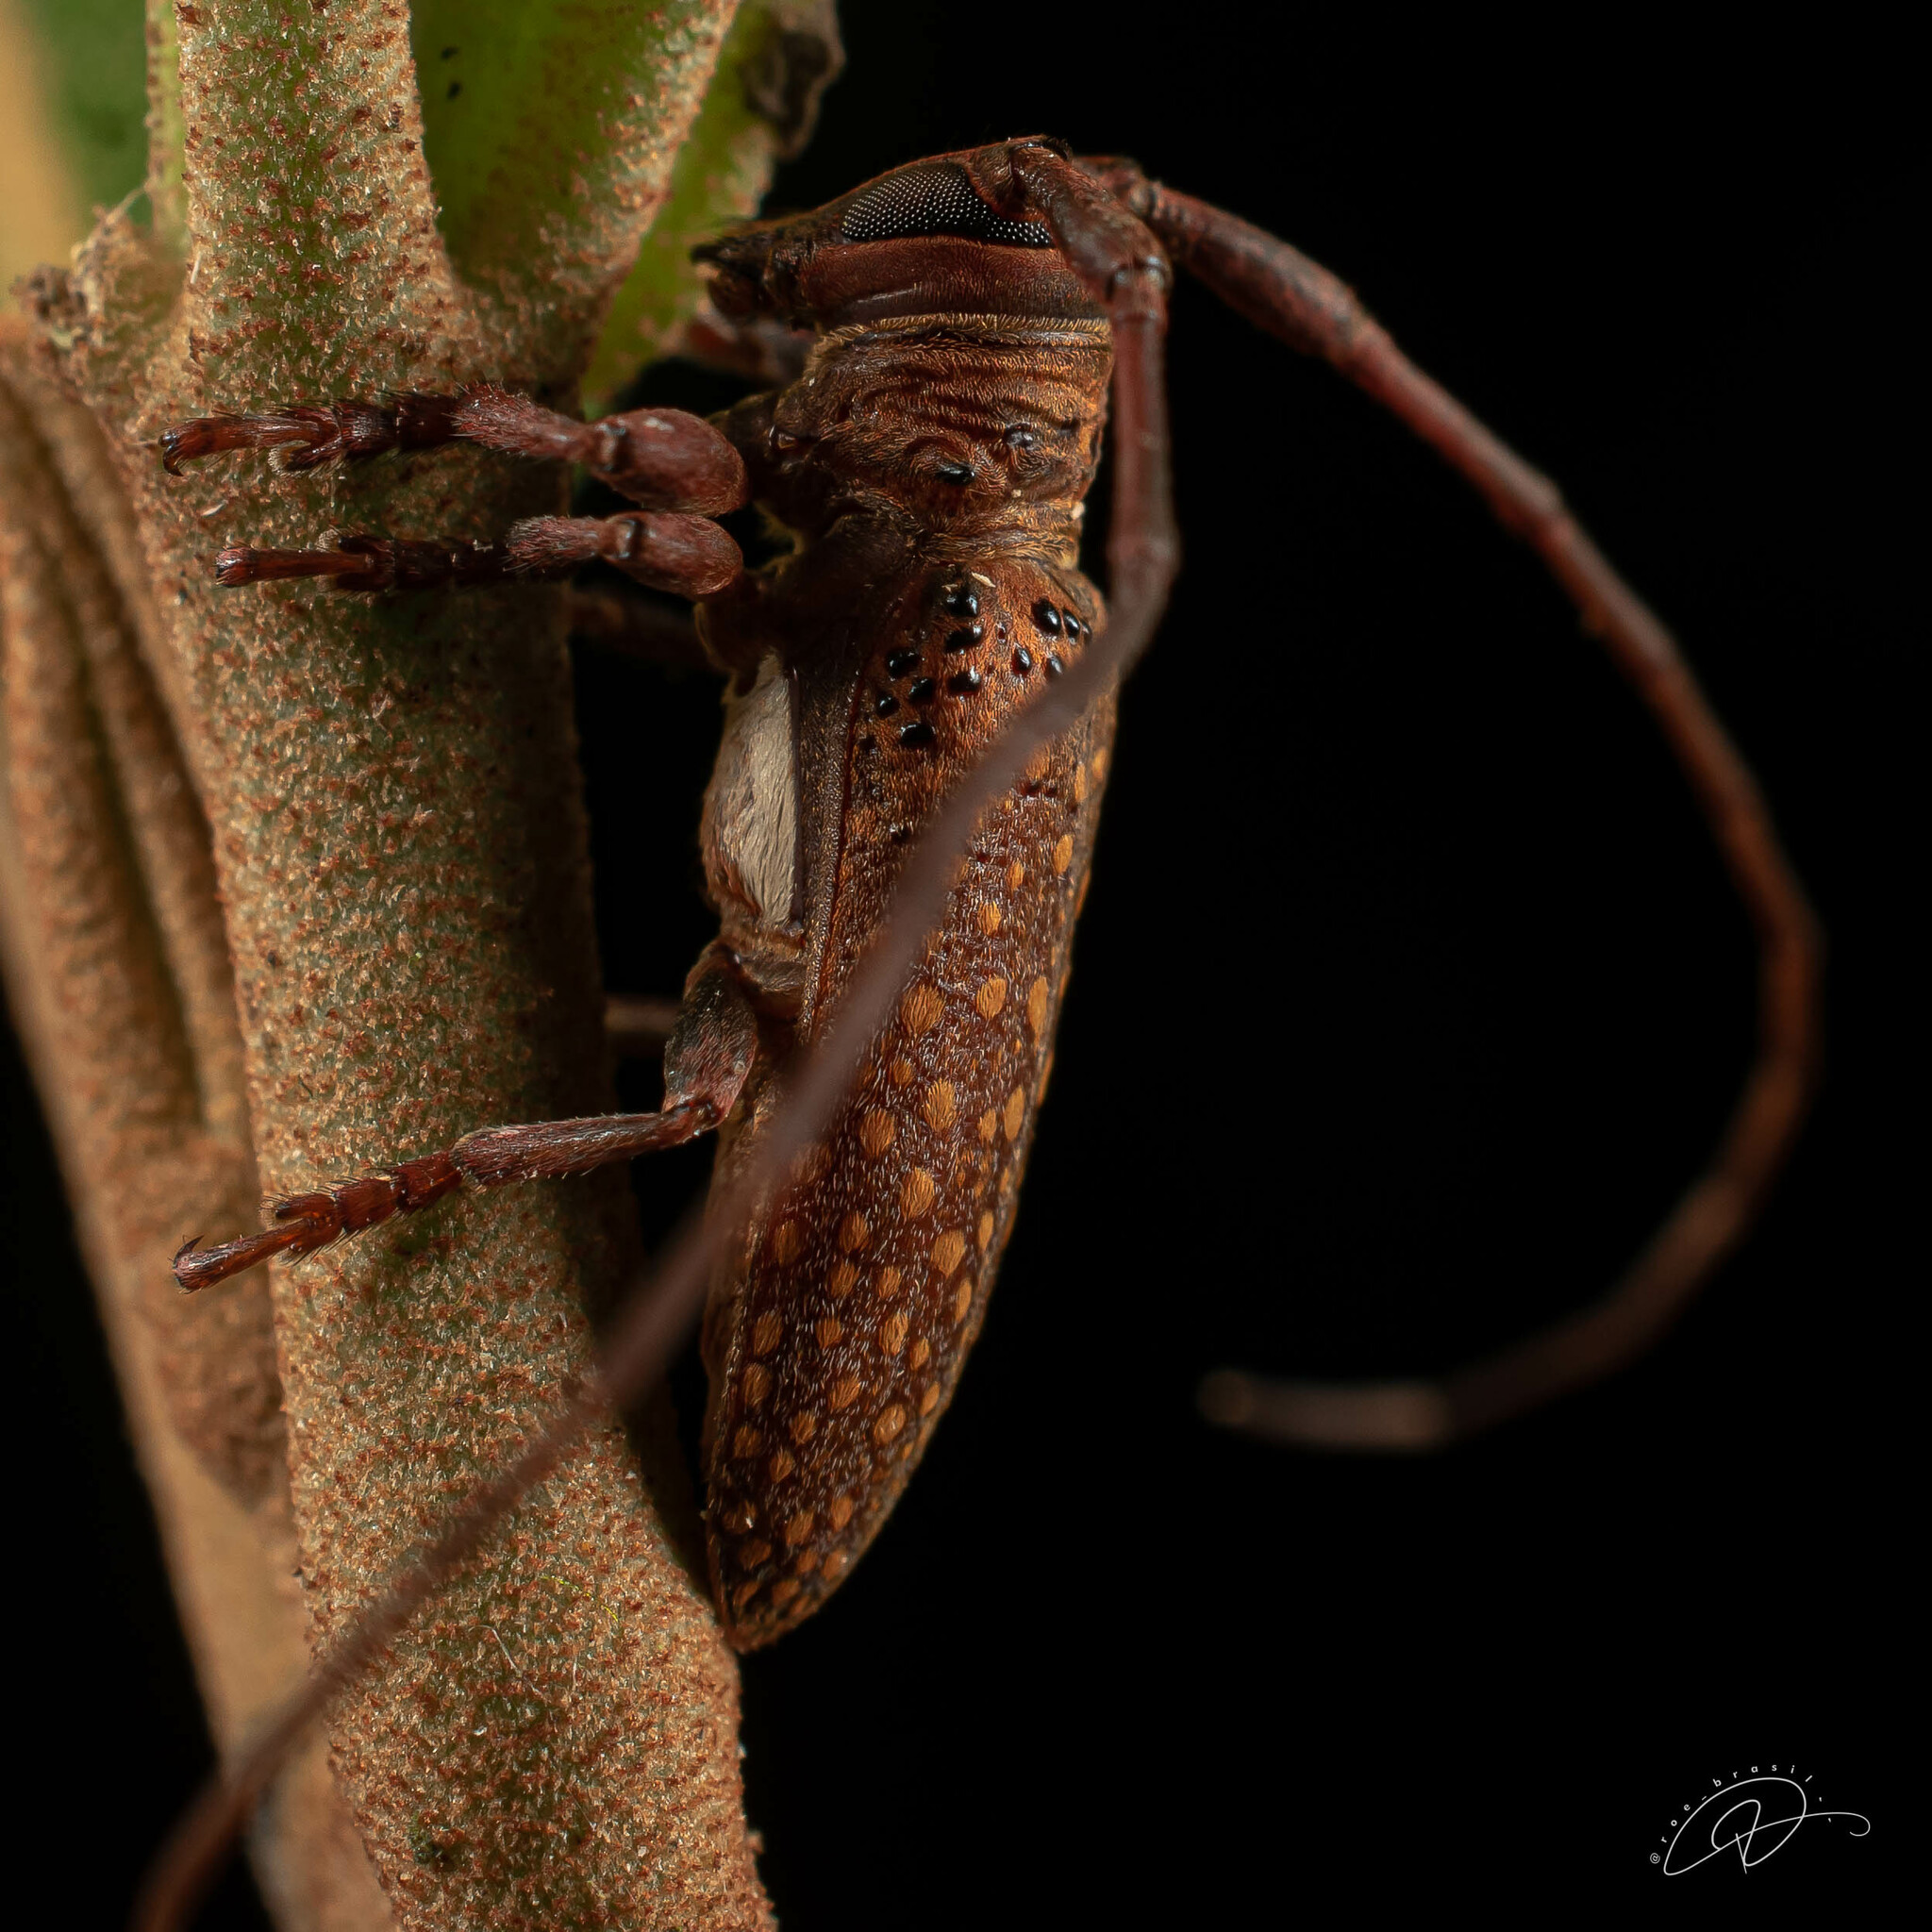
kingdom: Animalia
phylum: Arthropoda
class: Insecta
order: Coleoptera
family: Cerambycidae
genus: Oncideres
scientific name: Oncideres impluviata
